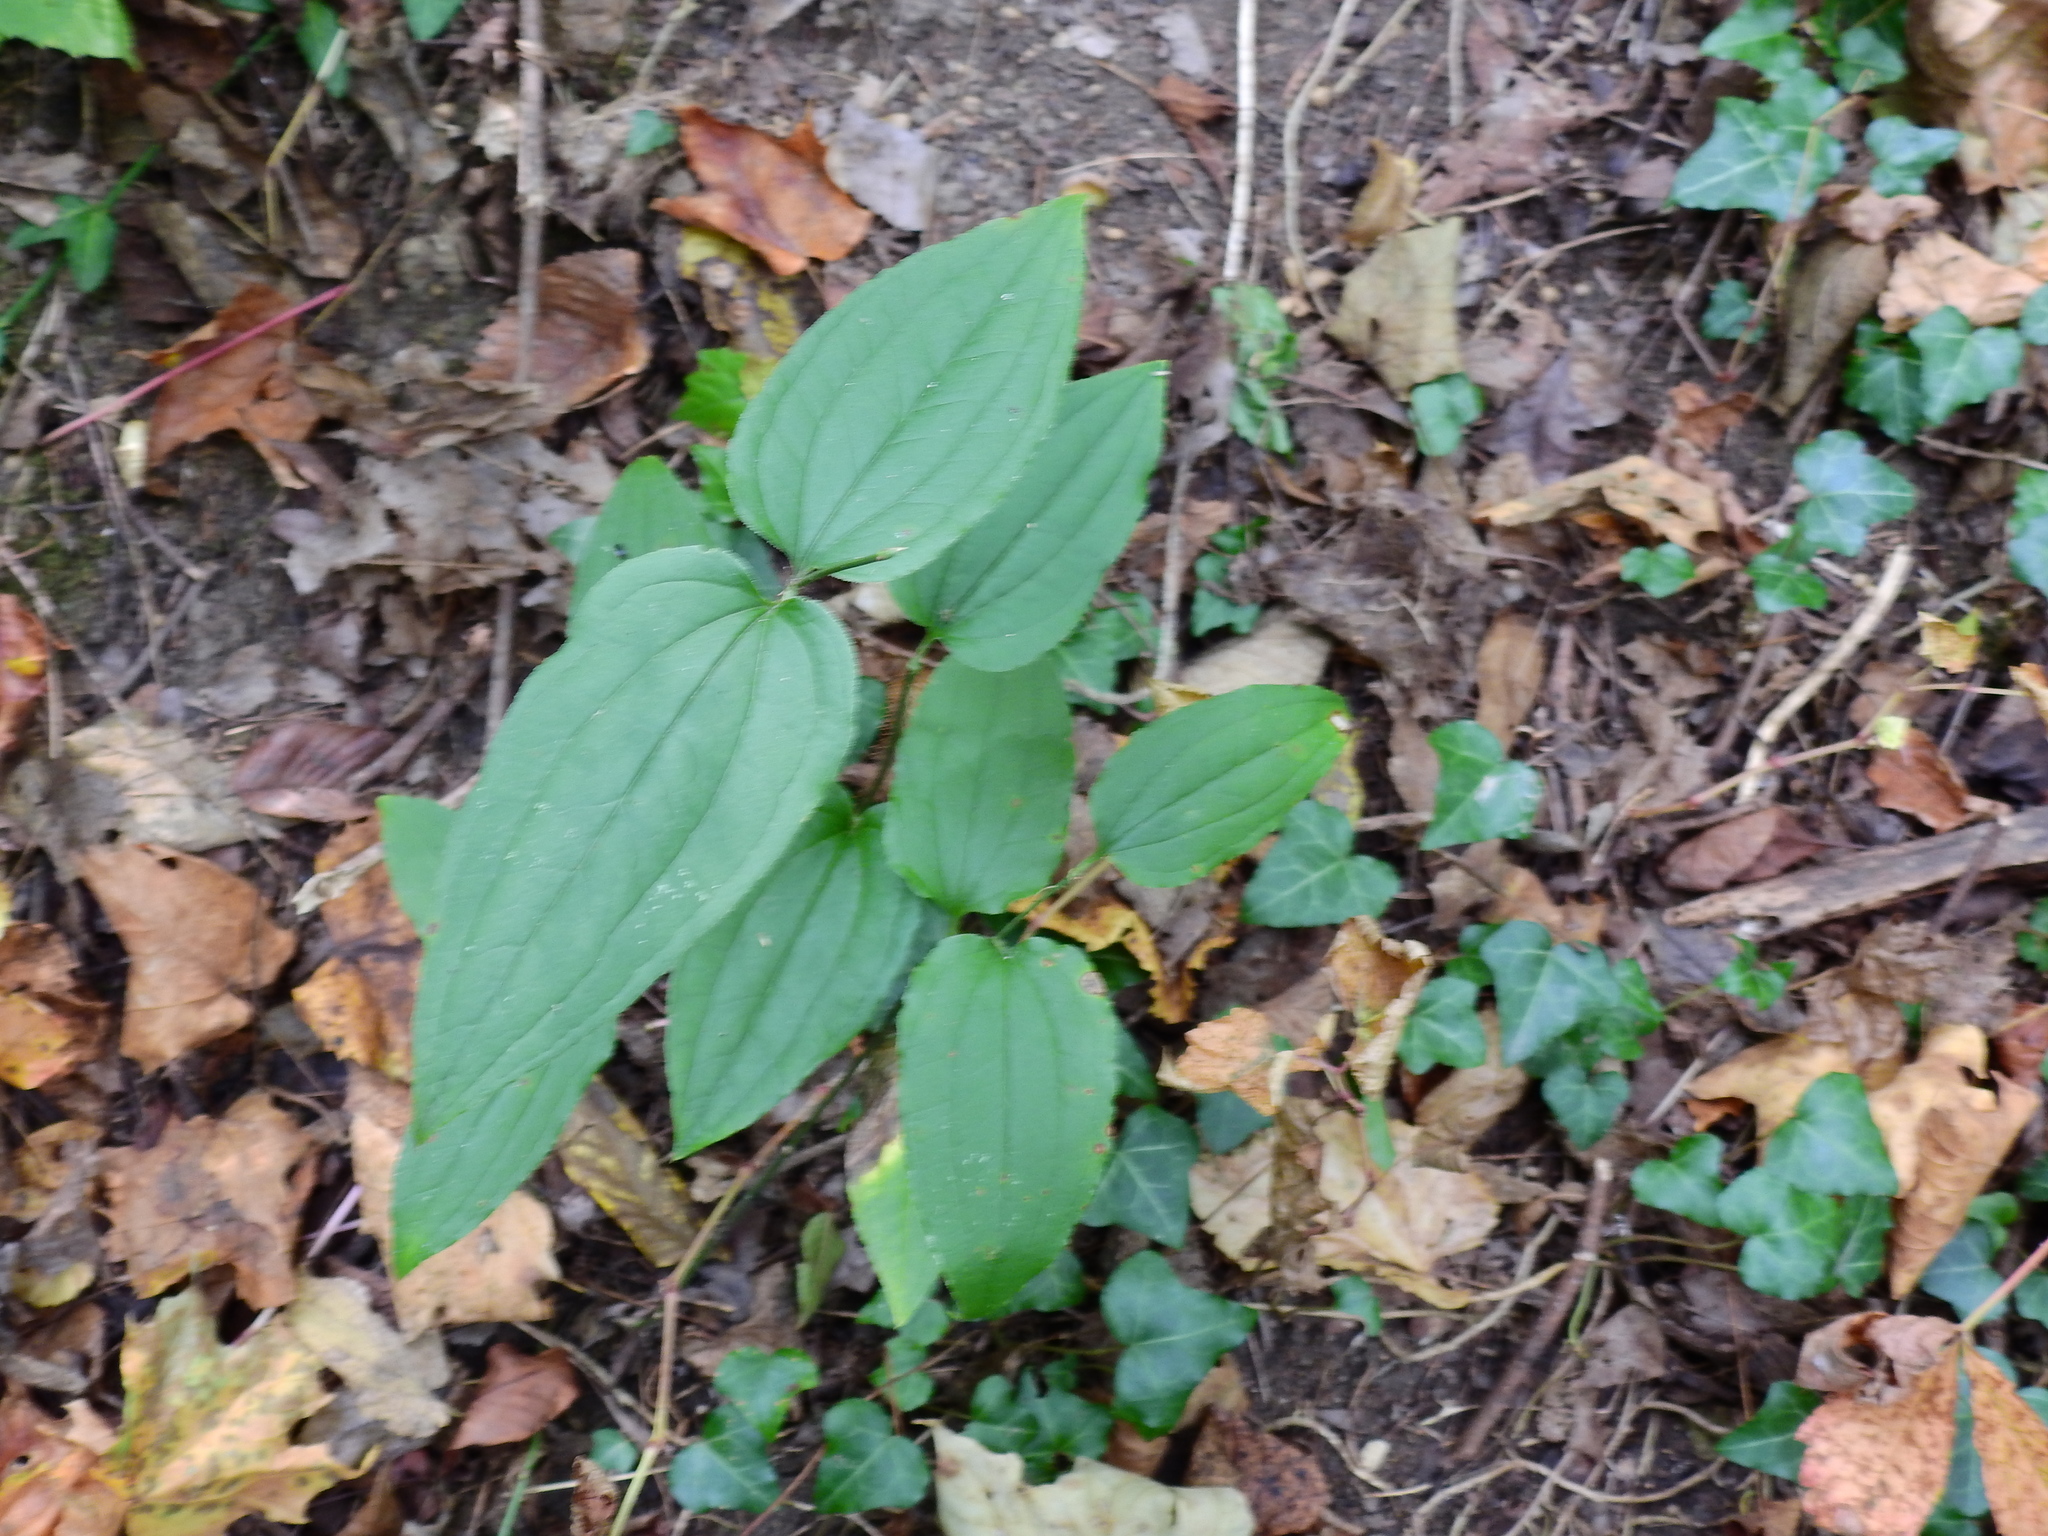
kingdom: Plantae
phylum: Tracheophyta
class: Liliopsida
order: Liliales
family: Smilacaceae
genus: Smilax
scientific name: Smilax tamnoides
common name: Hellfetter
